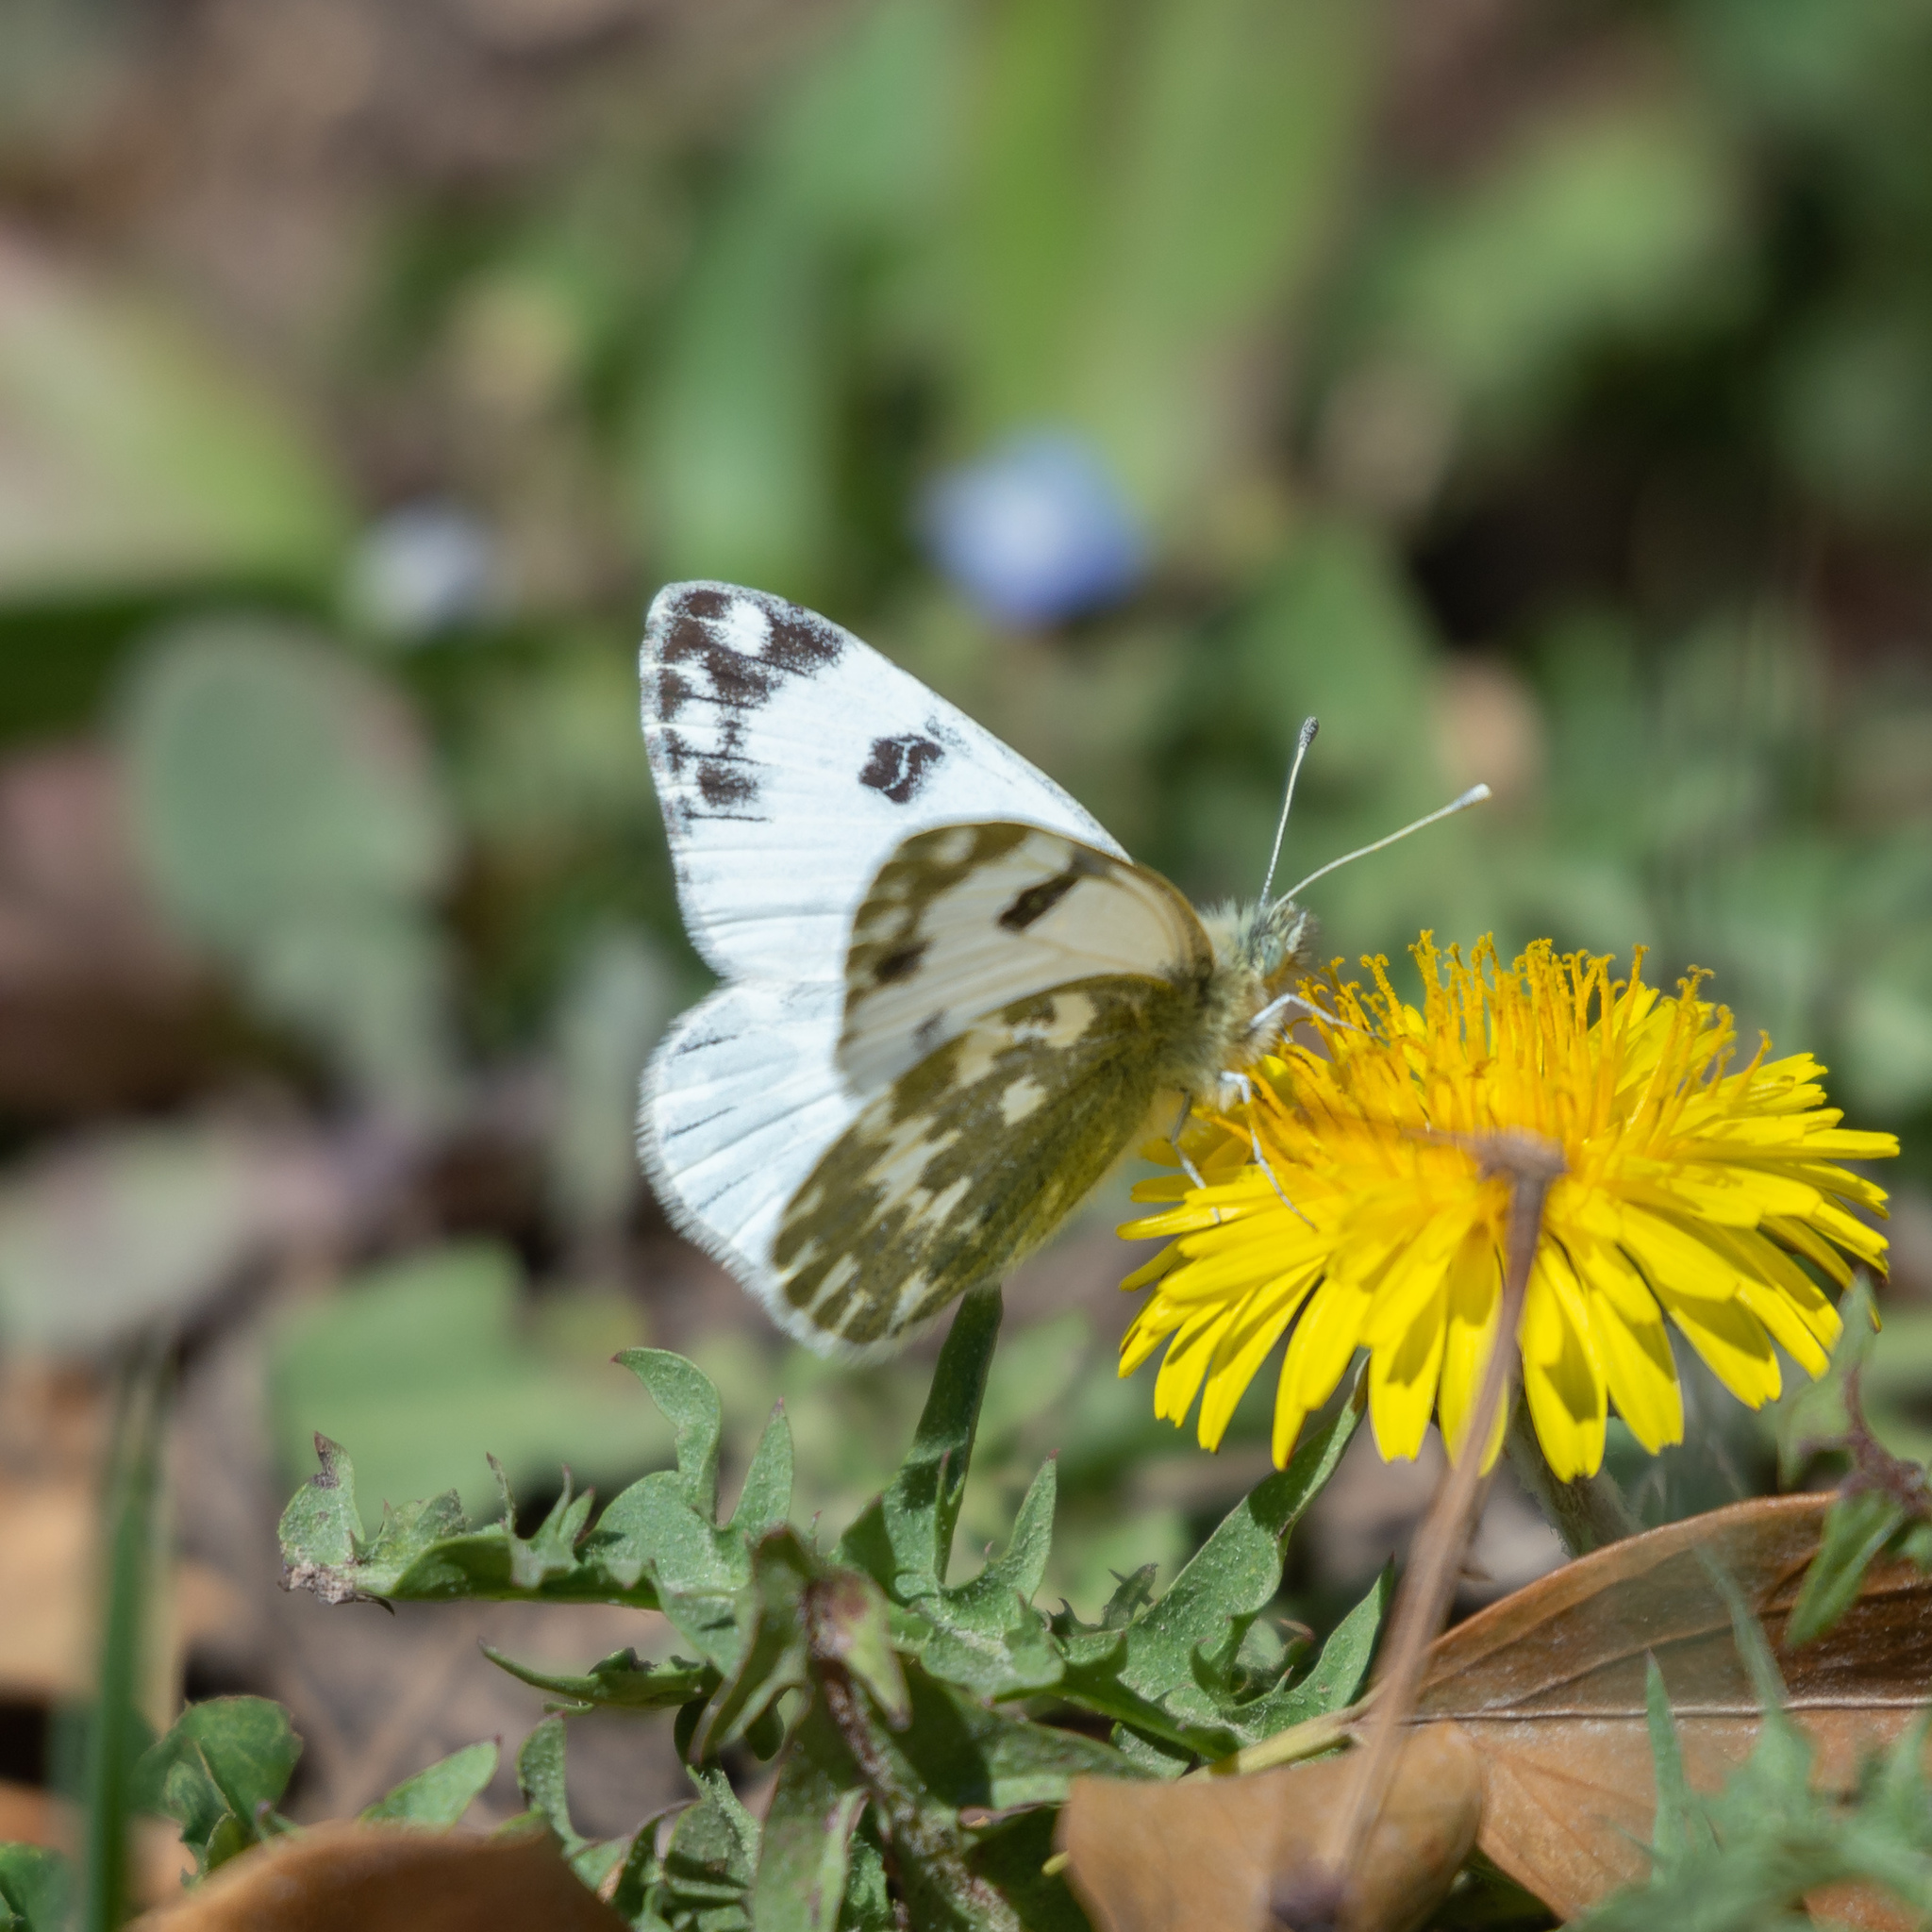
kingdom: Animalia
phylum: Arthropoda
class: Insecta
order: Lepidoptera
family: Pieridae
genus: Pontia
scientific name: Pontia daplidice
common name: Bath white
